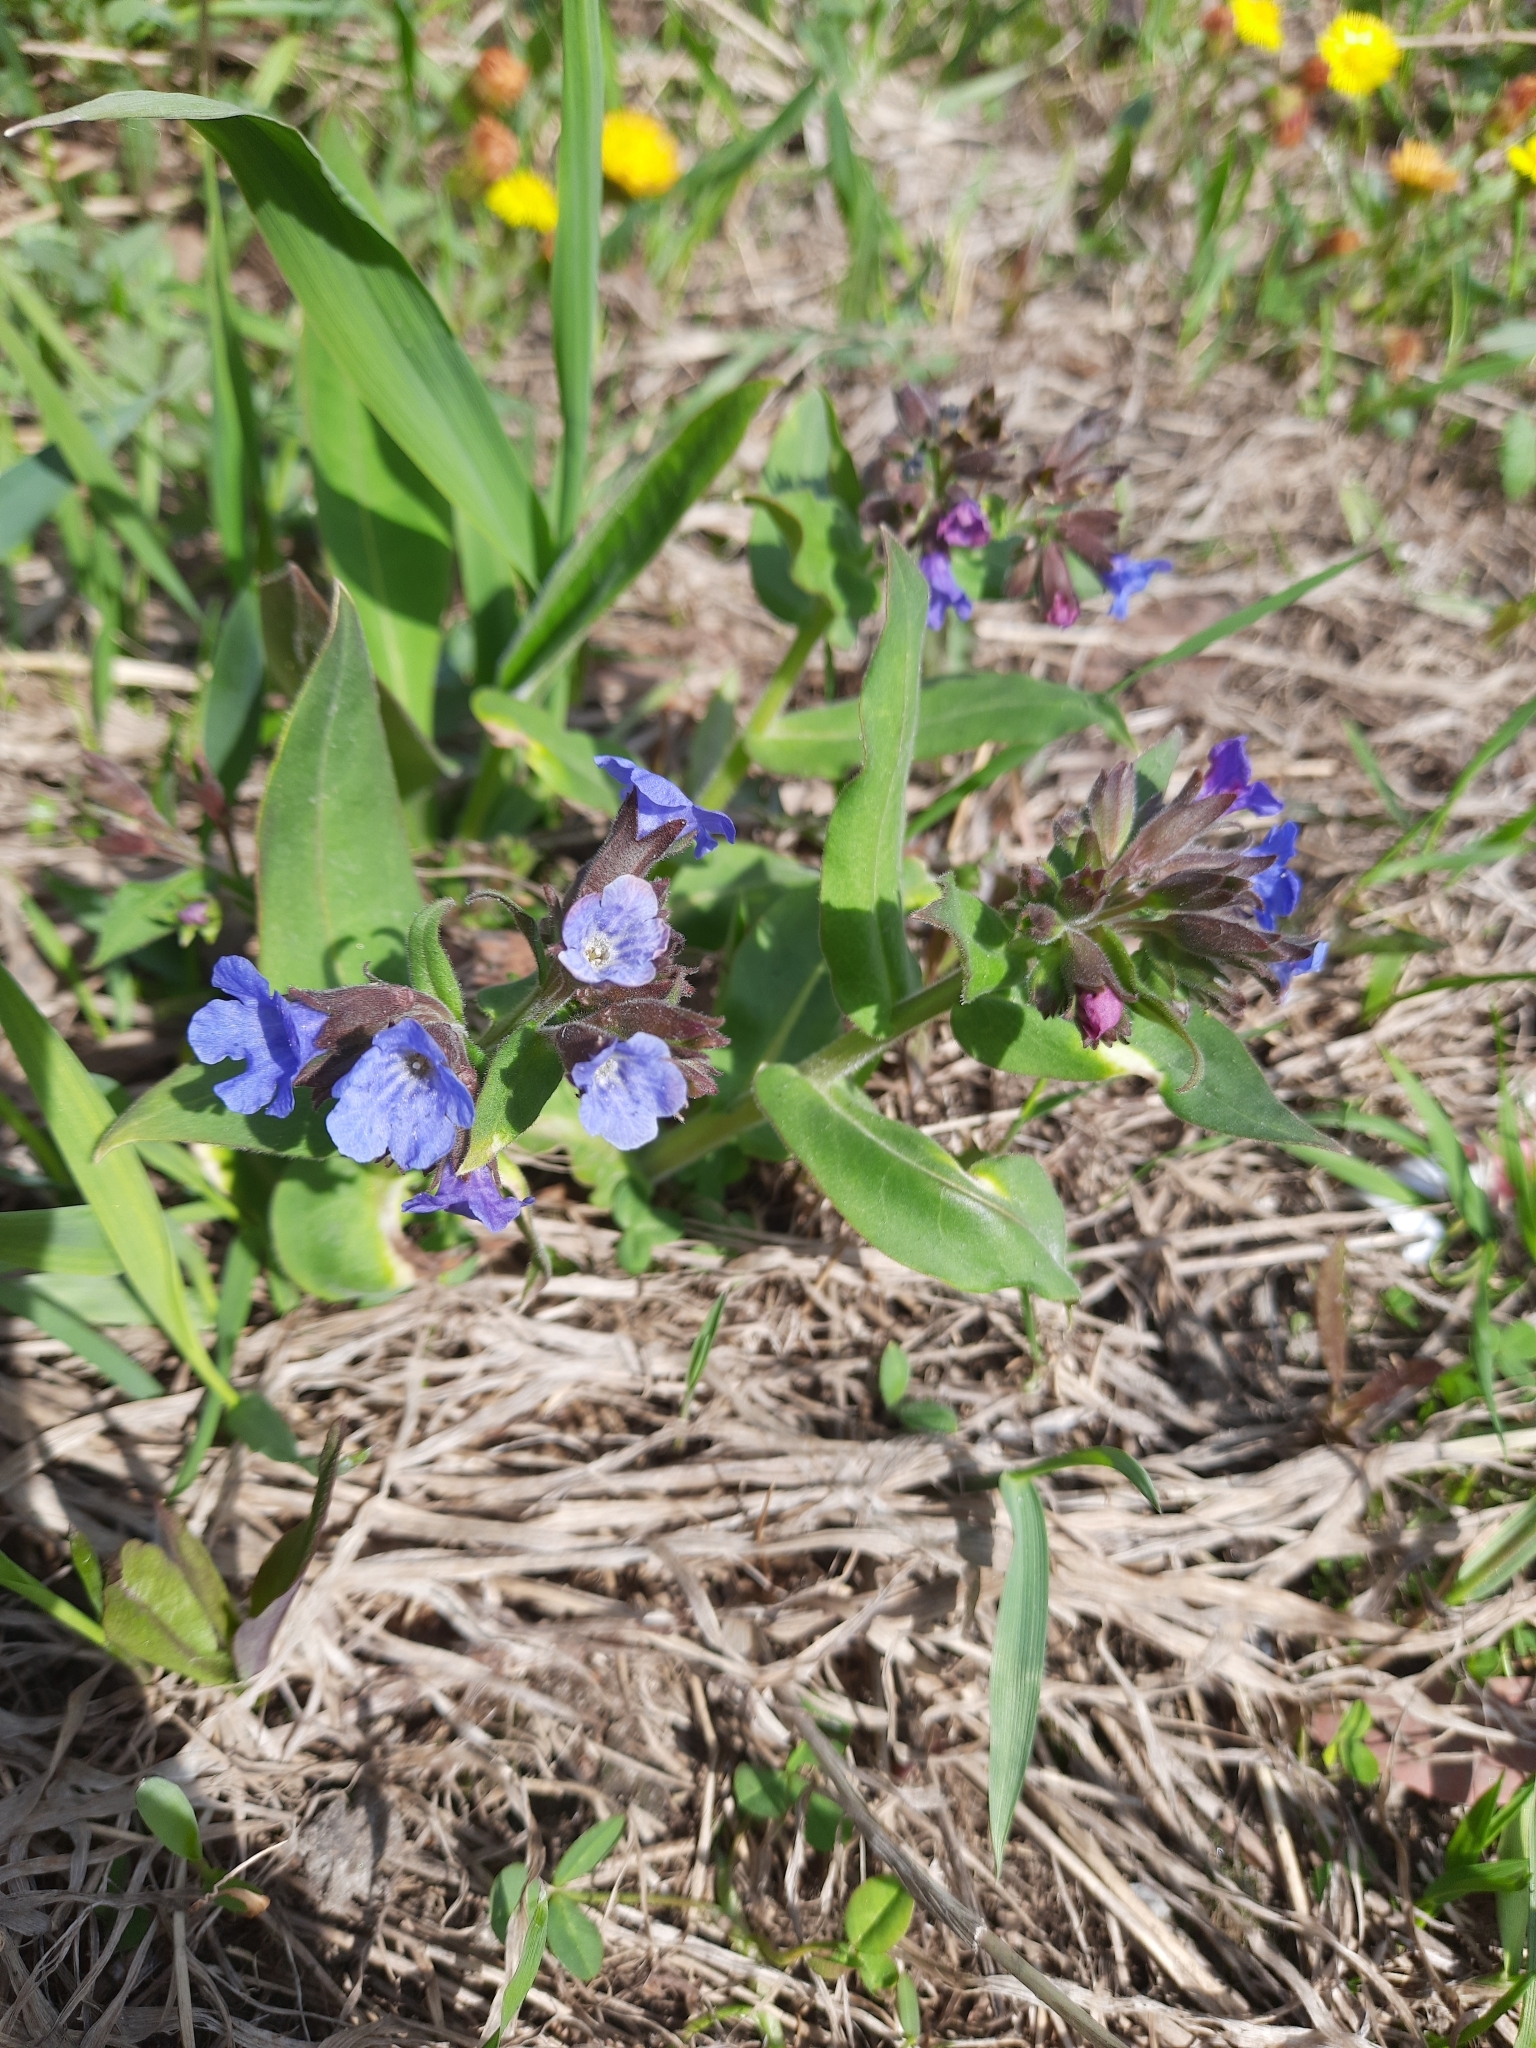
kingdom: Plantae
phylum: Tracheophyta
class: Magnoliopsida
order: Boraginales
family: Boraginaceae
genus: Pulmonaria
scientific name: Pulmonaria mollis
